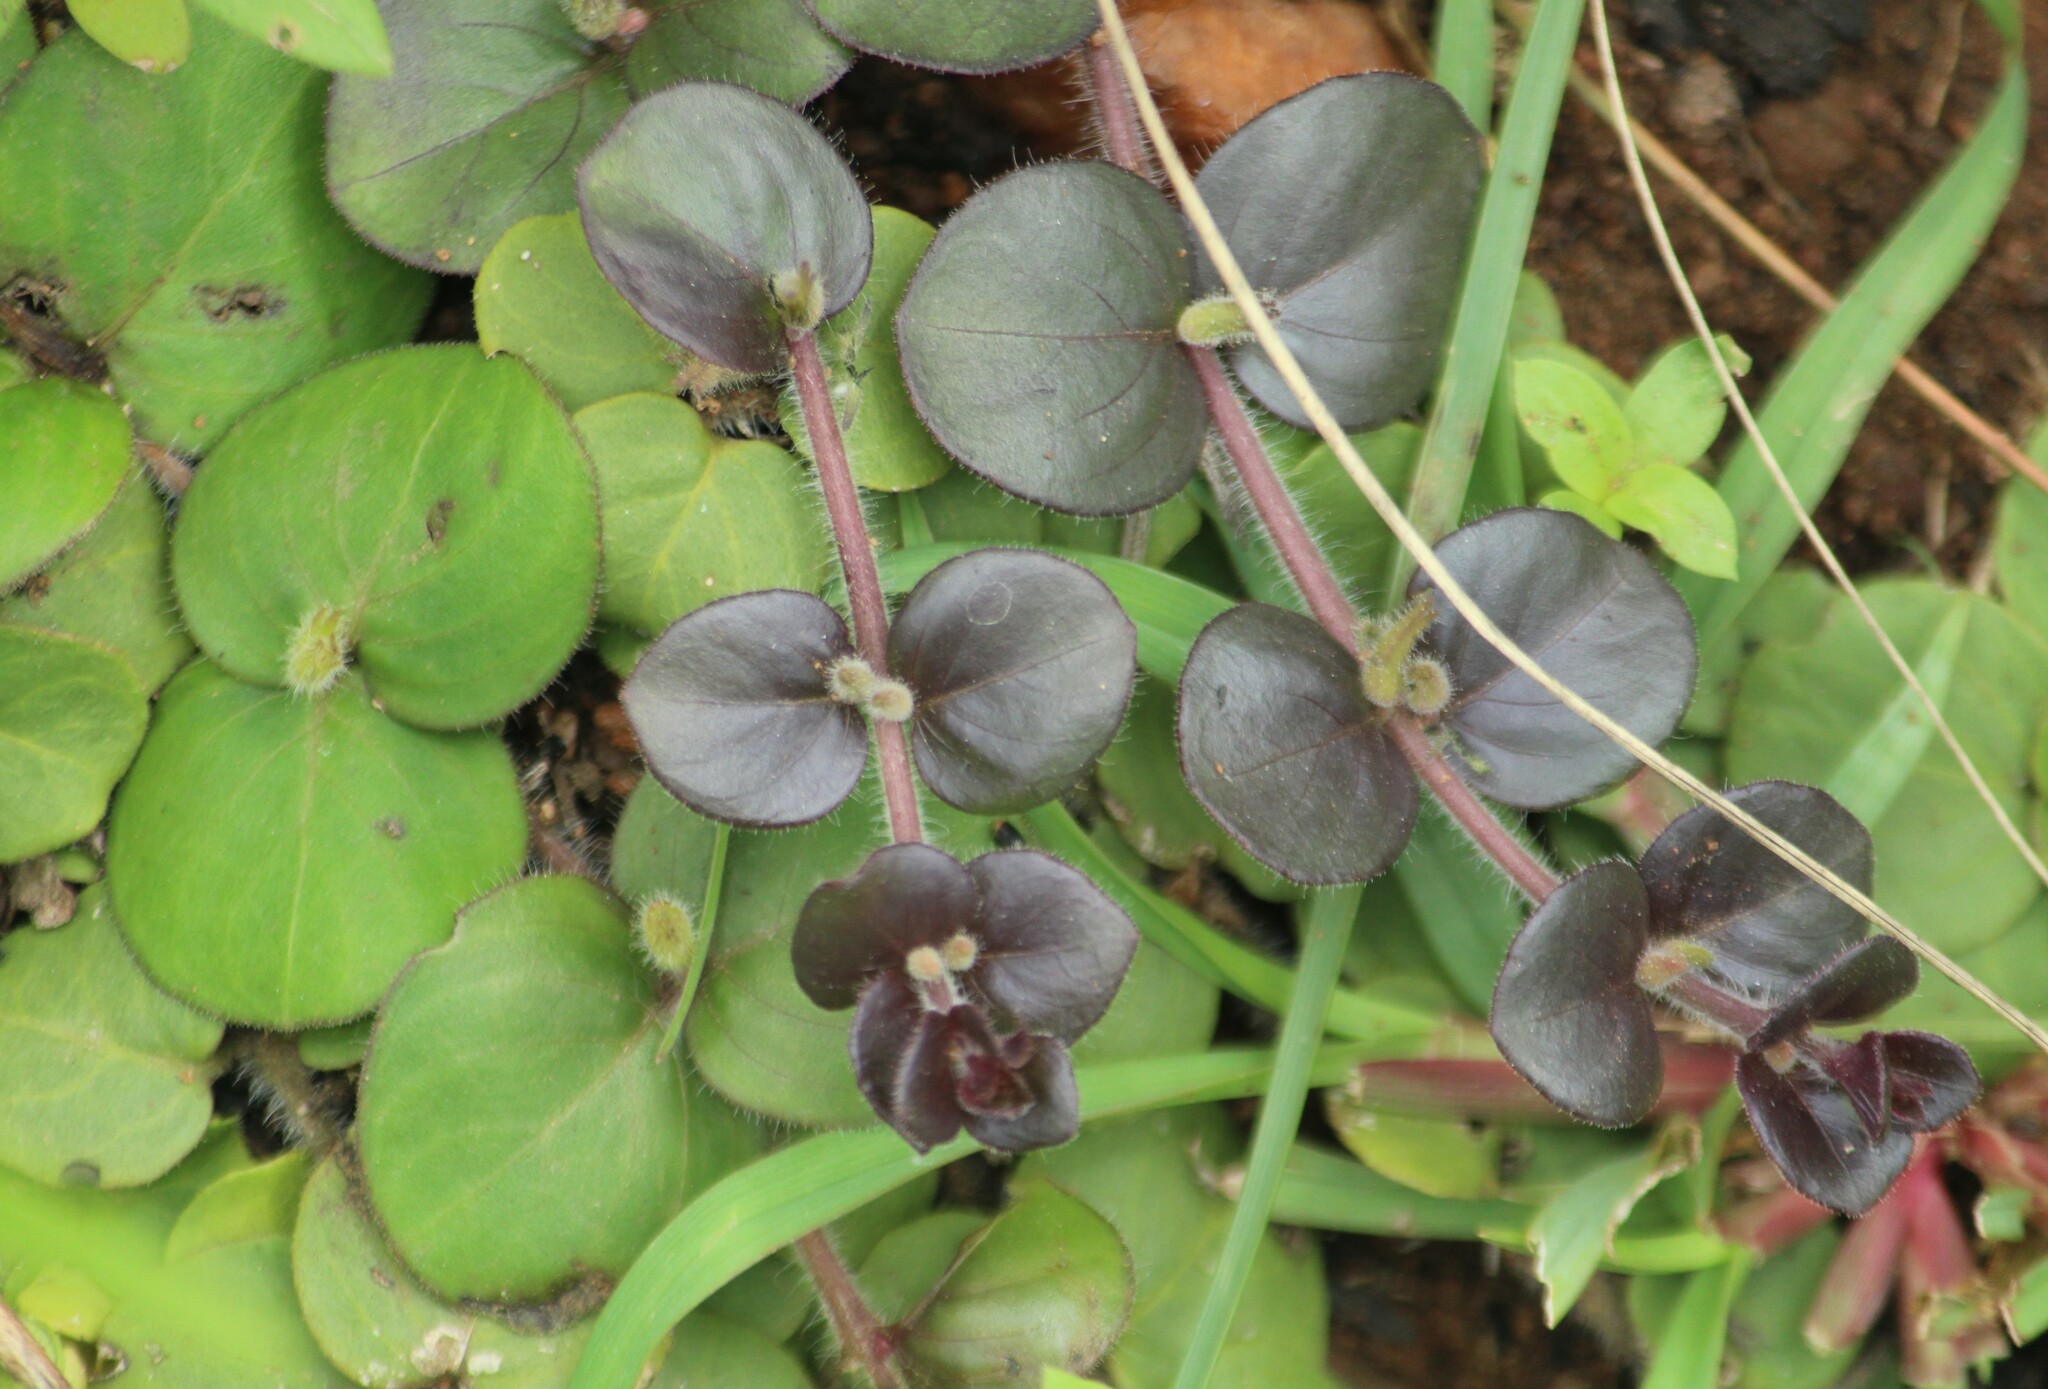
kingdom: Plantae
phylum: Tracheophyta
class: Magnoliopsida
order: Lamiales
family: Acanthaceae
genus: Andrographis
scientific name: Andrographis serpyllifolia
